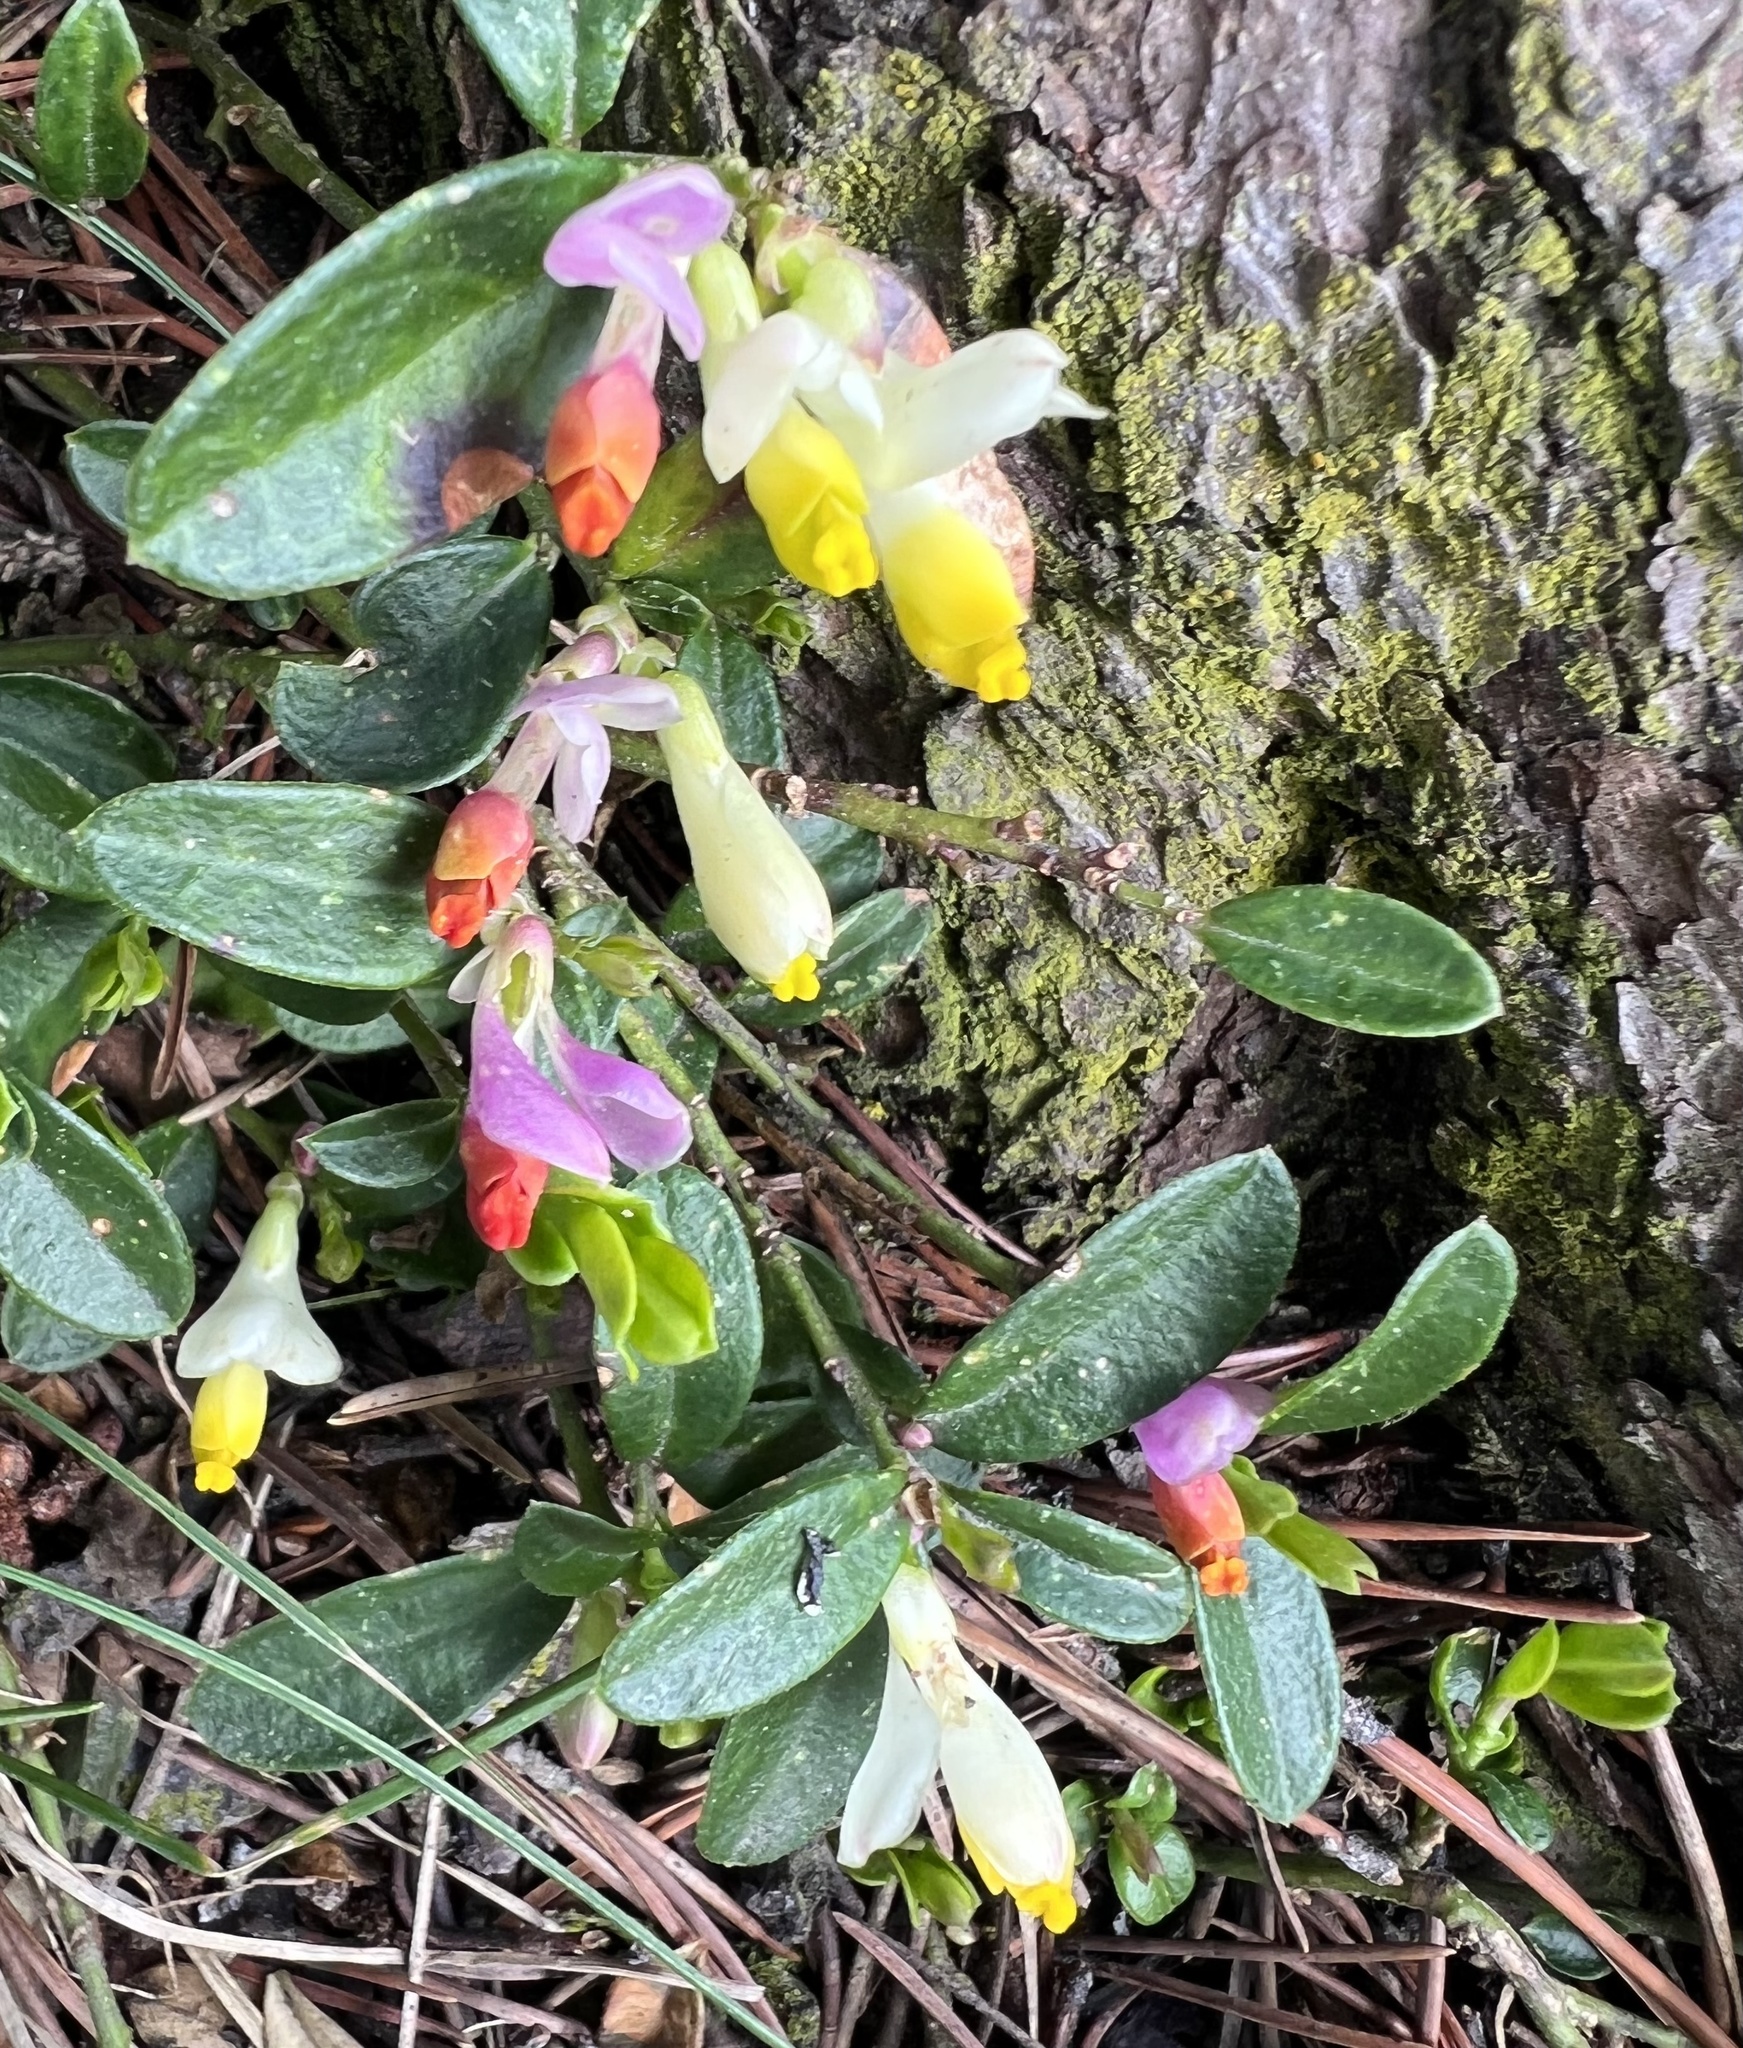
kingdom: Plantae
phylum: Tracheophyta
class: Magnoliopsida
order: Fabales
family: Polygalaceae
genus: Polygaloides
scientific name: Polygaloides chamaebuxus
